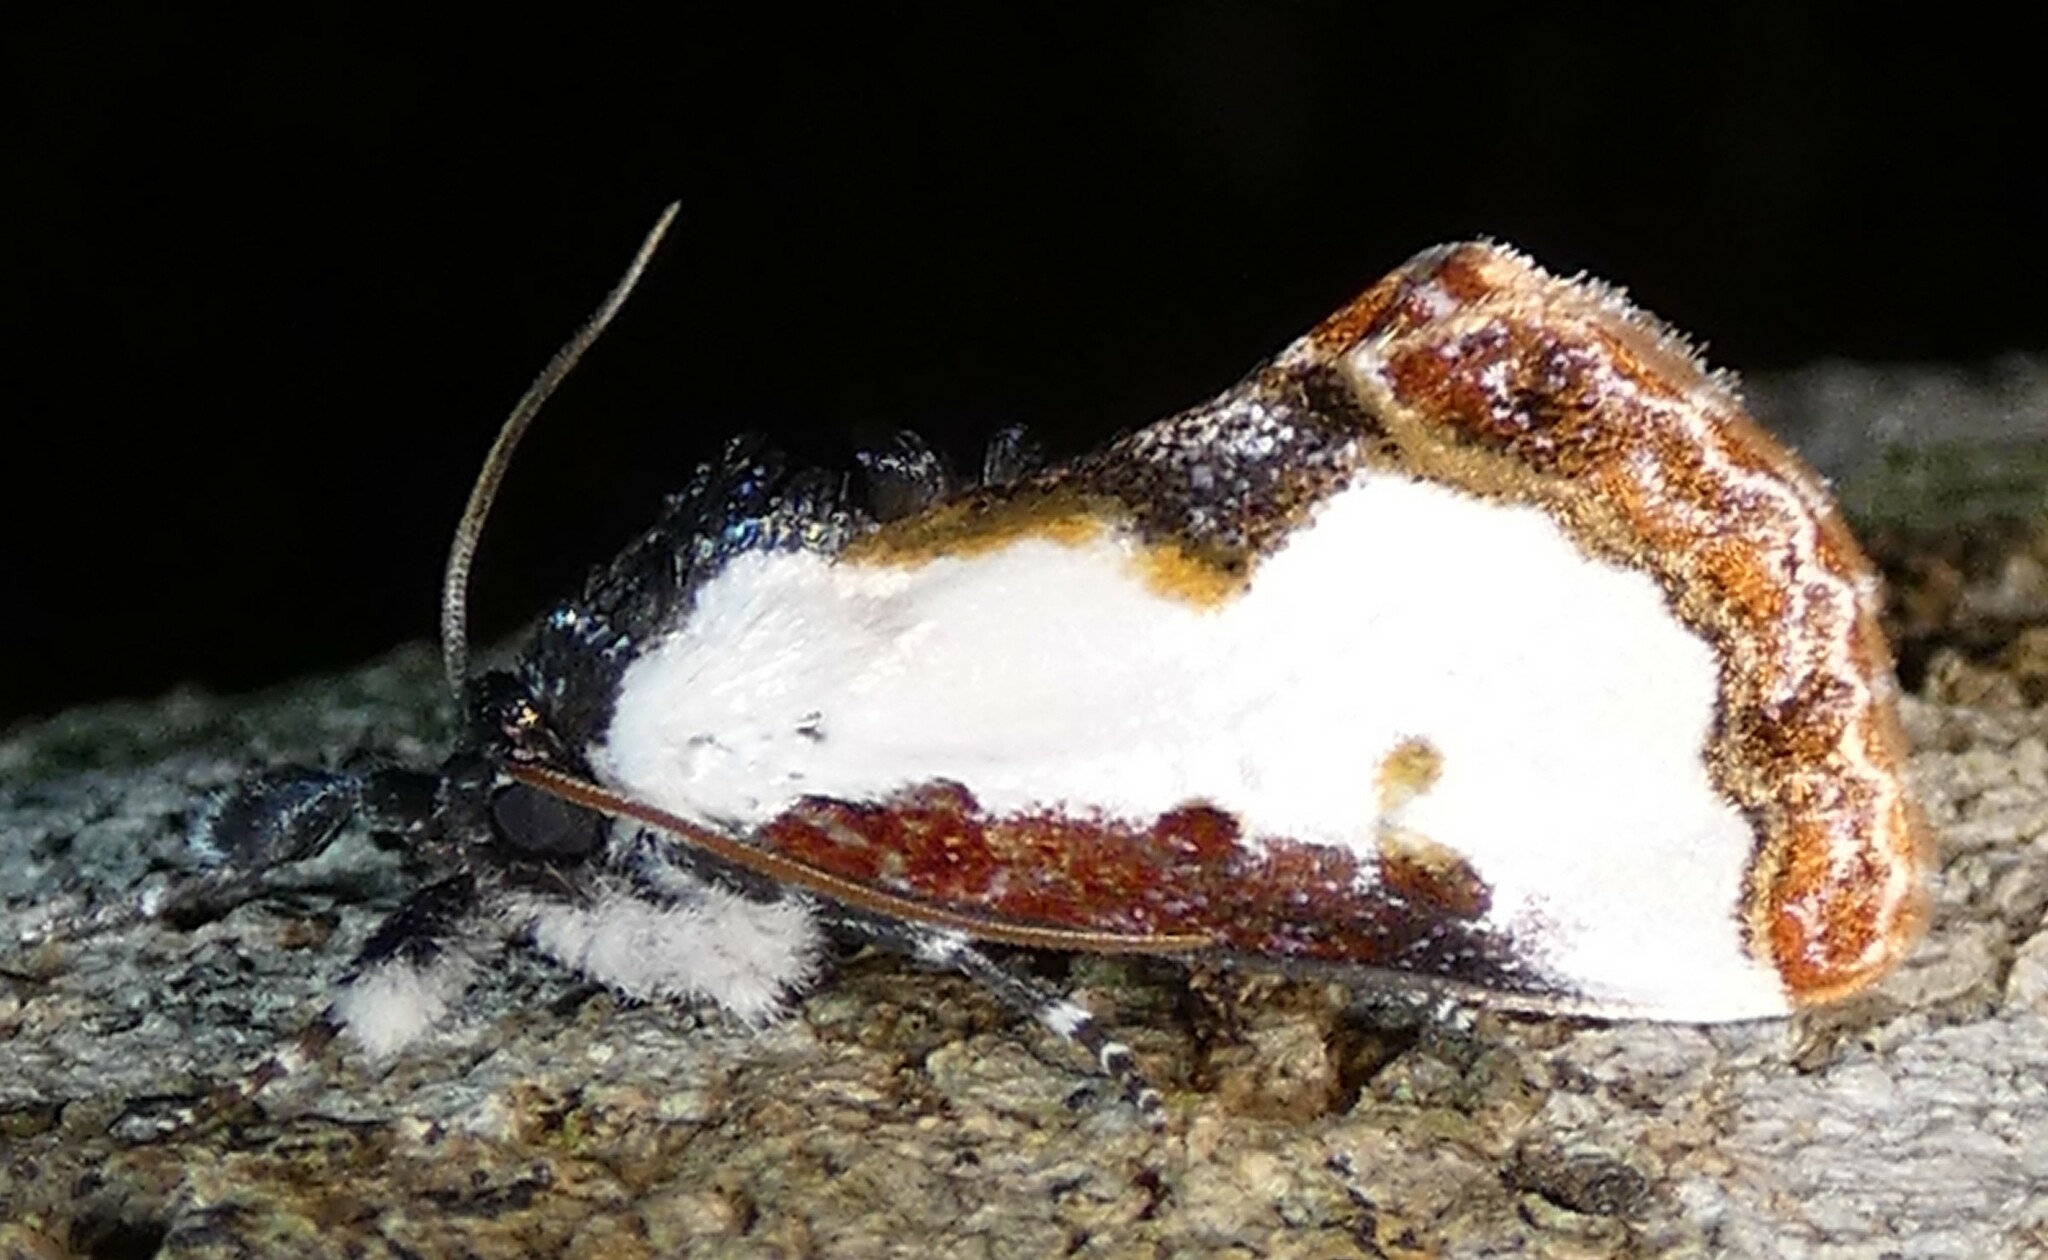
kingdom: Animalia
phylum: Arthropoda
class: Insecta
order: Lepidoptera
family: Noctuidae
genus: Eudryas
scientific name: Eudryas unio
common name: Pearly wood-nymph
